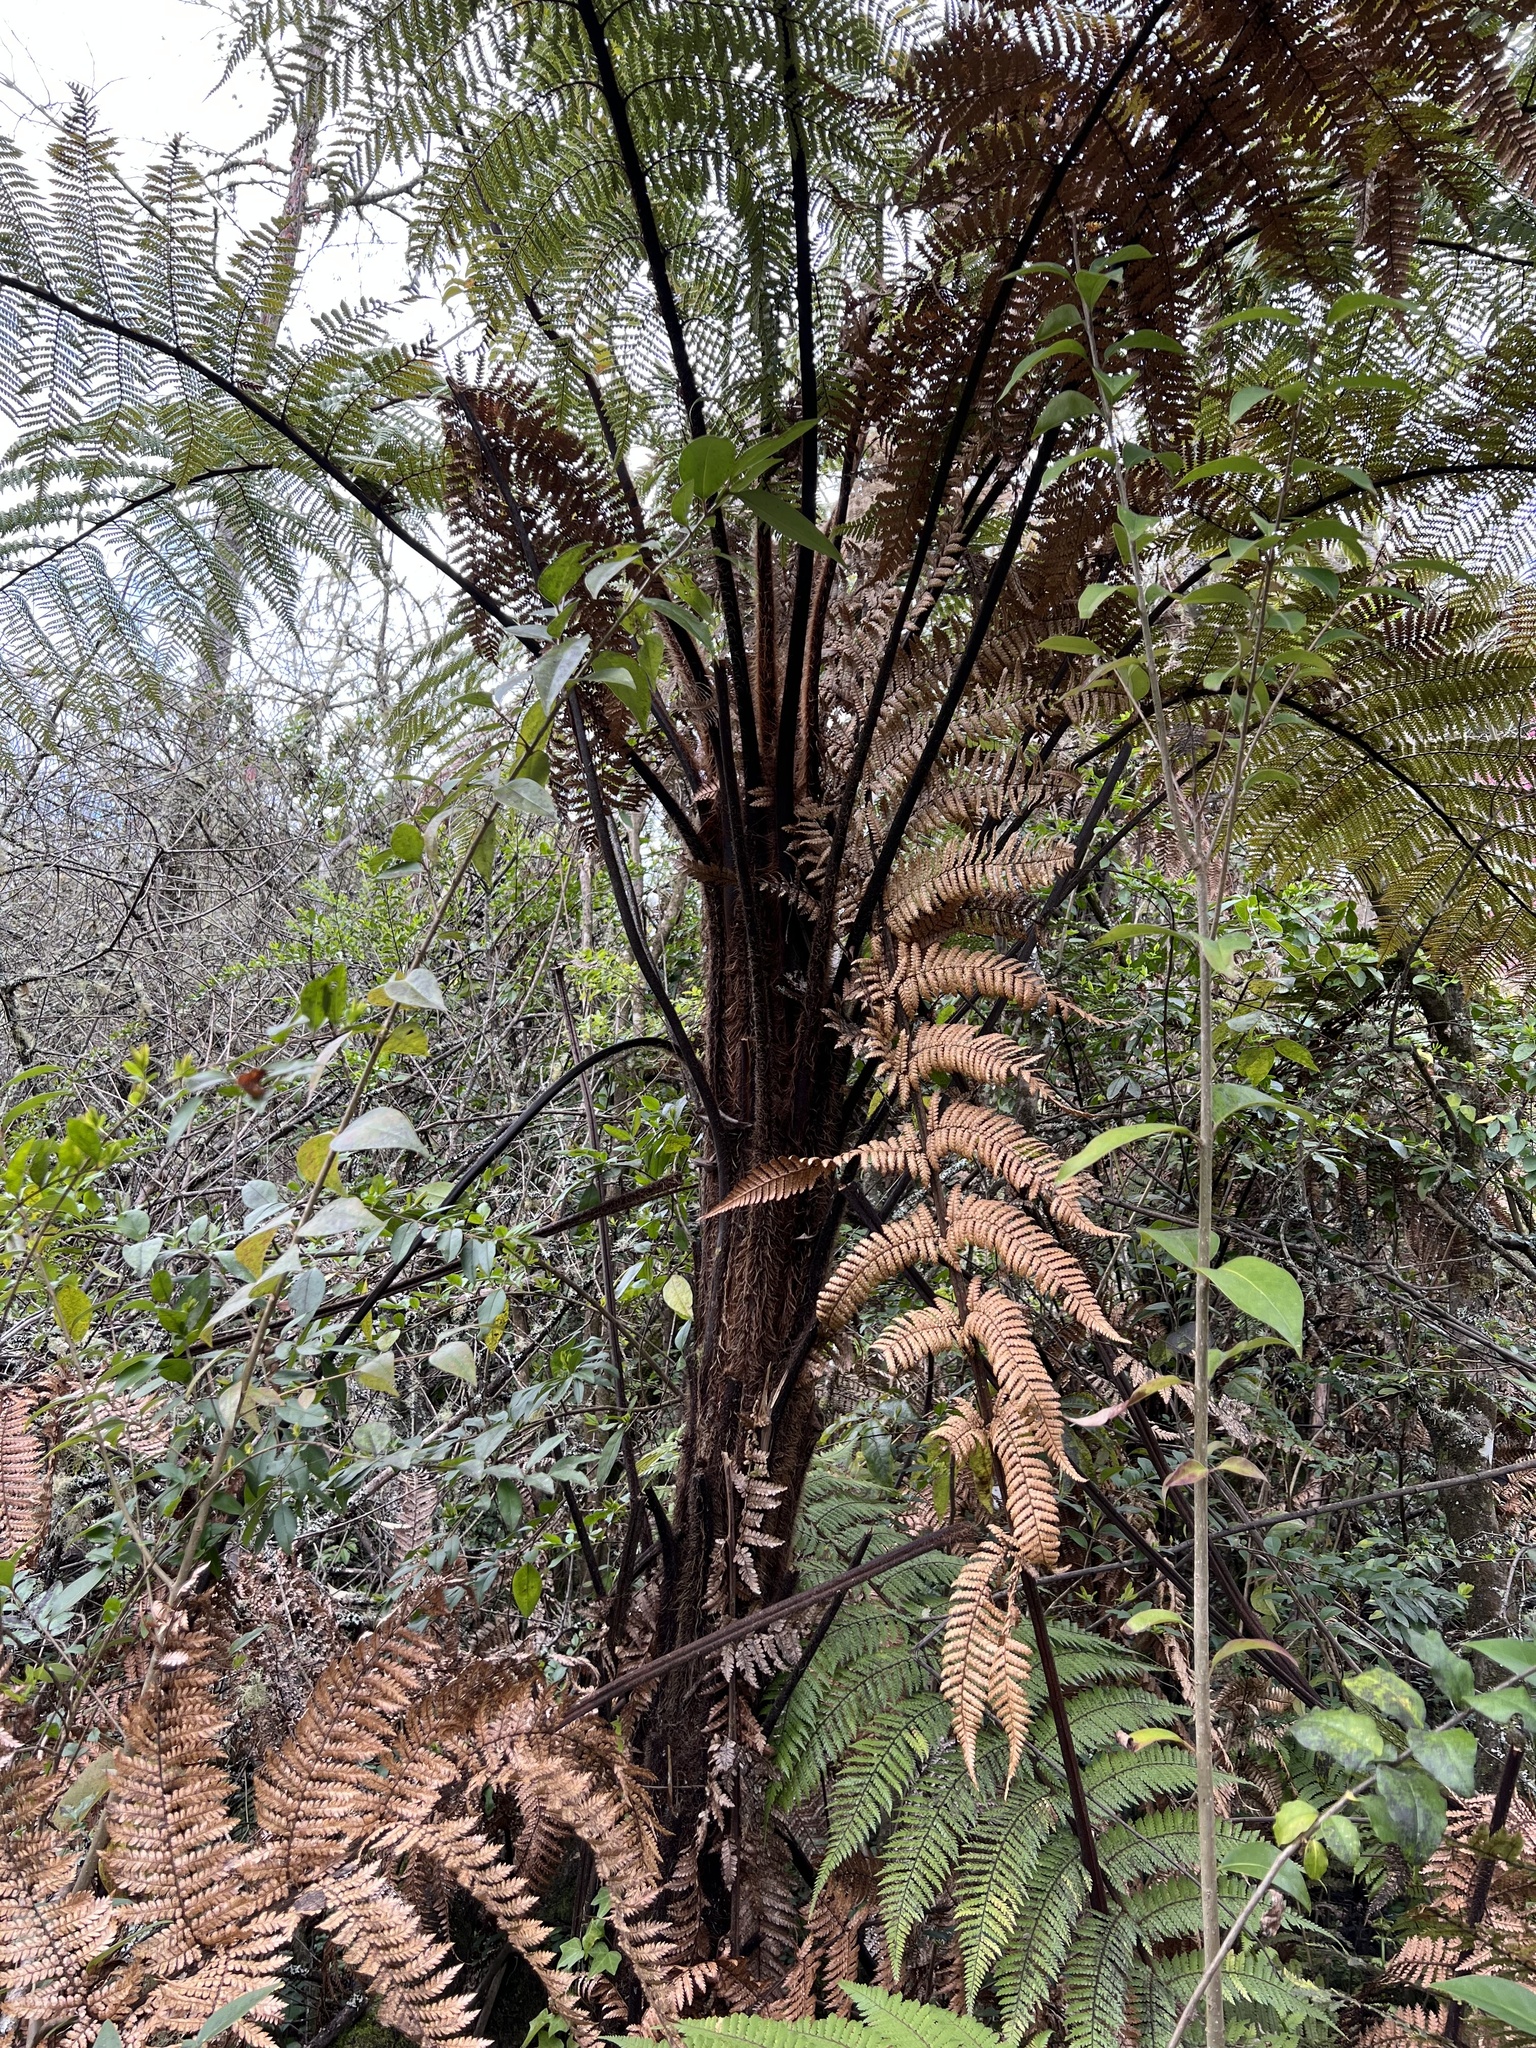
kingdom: Plantae
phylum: Tracheophyta
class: Polypodiopsida
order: Cyatheales
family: Dicksoniaceae
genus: Dicksonia
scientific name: Dicksonia squarrosa
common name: Hard treefern
